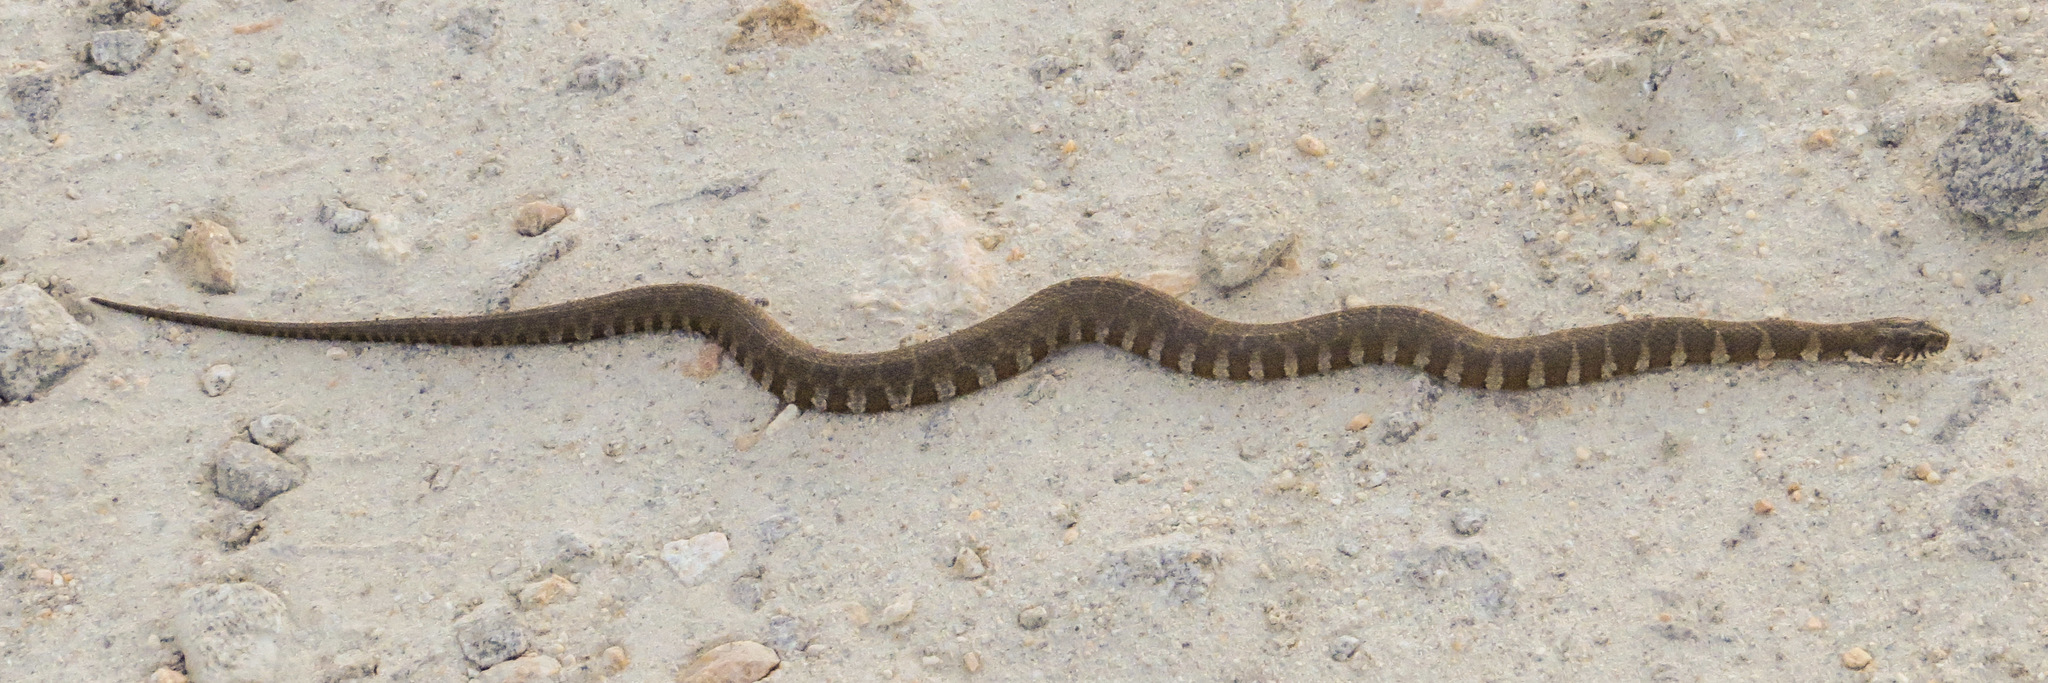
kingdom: Animalia
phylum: Chordata
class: Squamata
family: Colubridae
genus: Nerodia
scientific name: Nerodia sipedon
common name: Northern water snake
